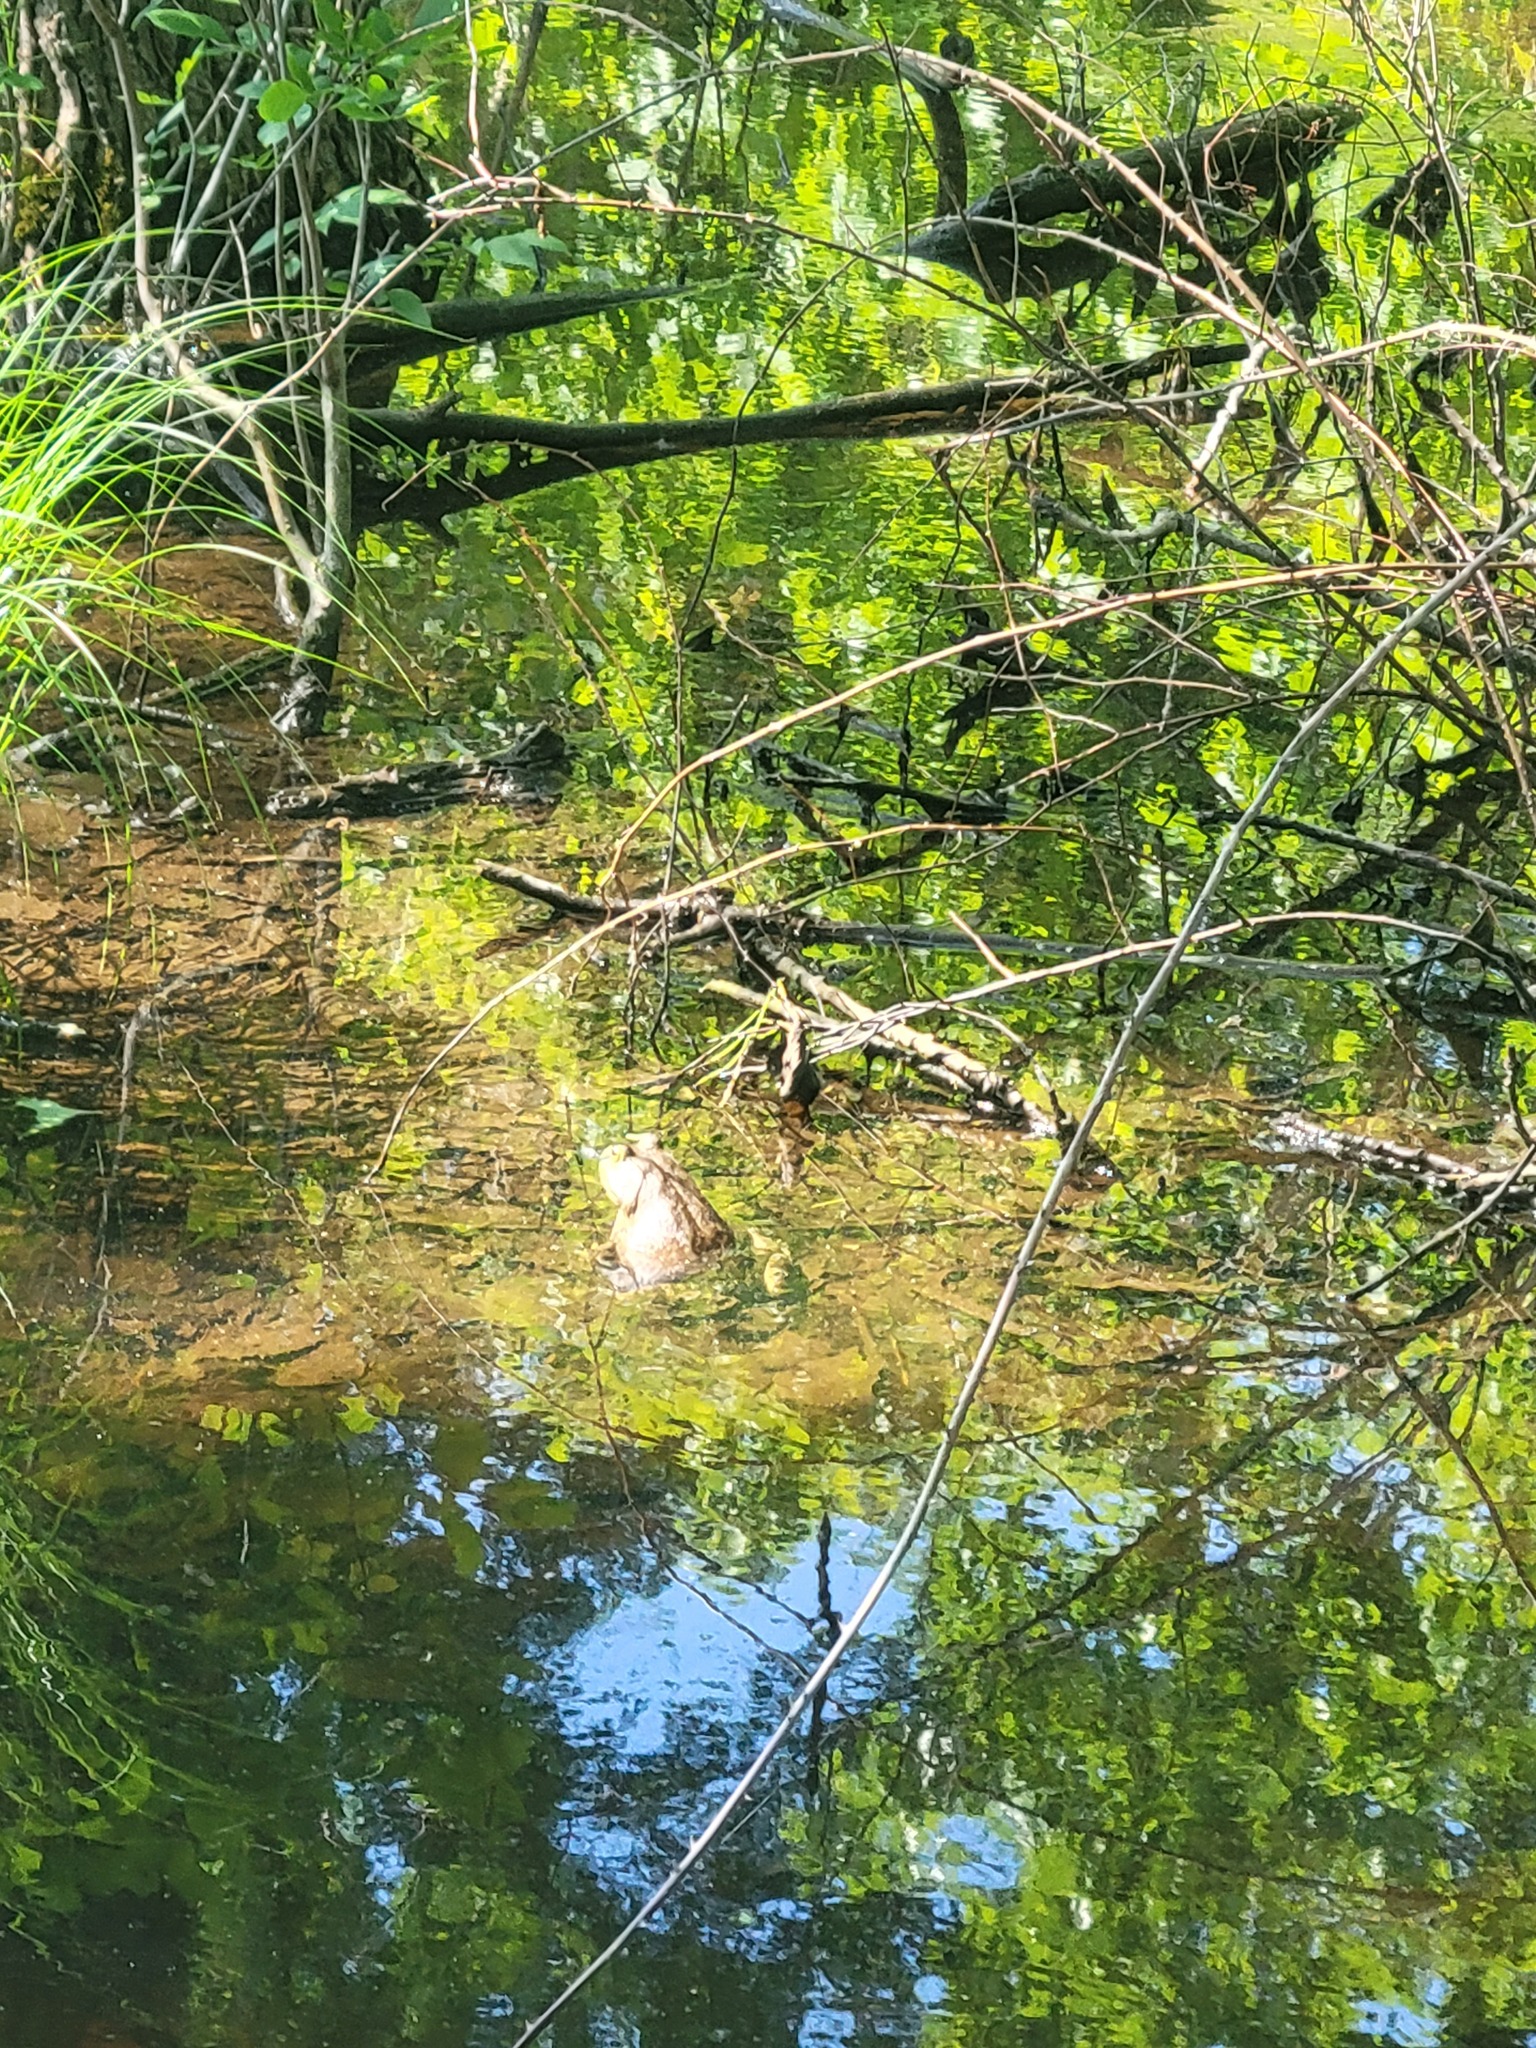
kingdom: Animalia
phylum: Chordata
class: Amphibia
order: Anura
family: Ranidae
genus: Lithobates
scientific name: Lithobates catesbeianus
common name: American bullfrog
